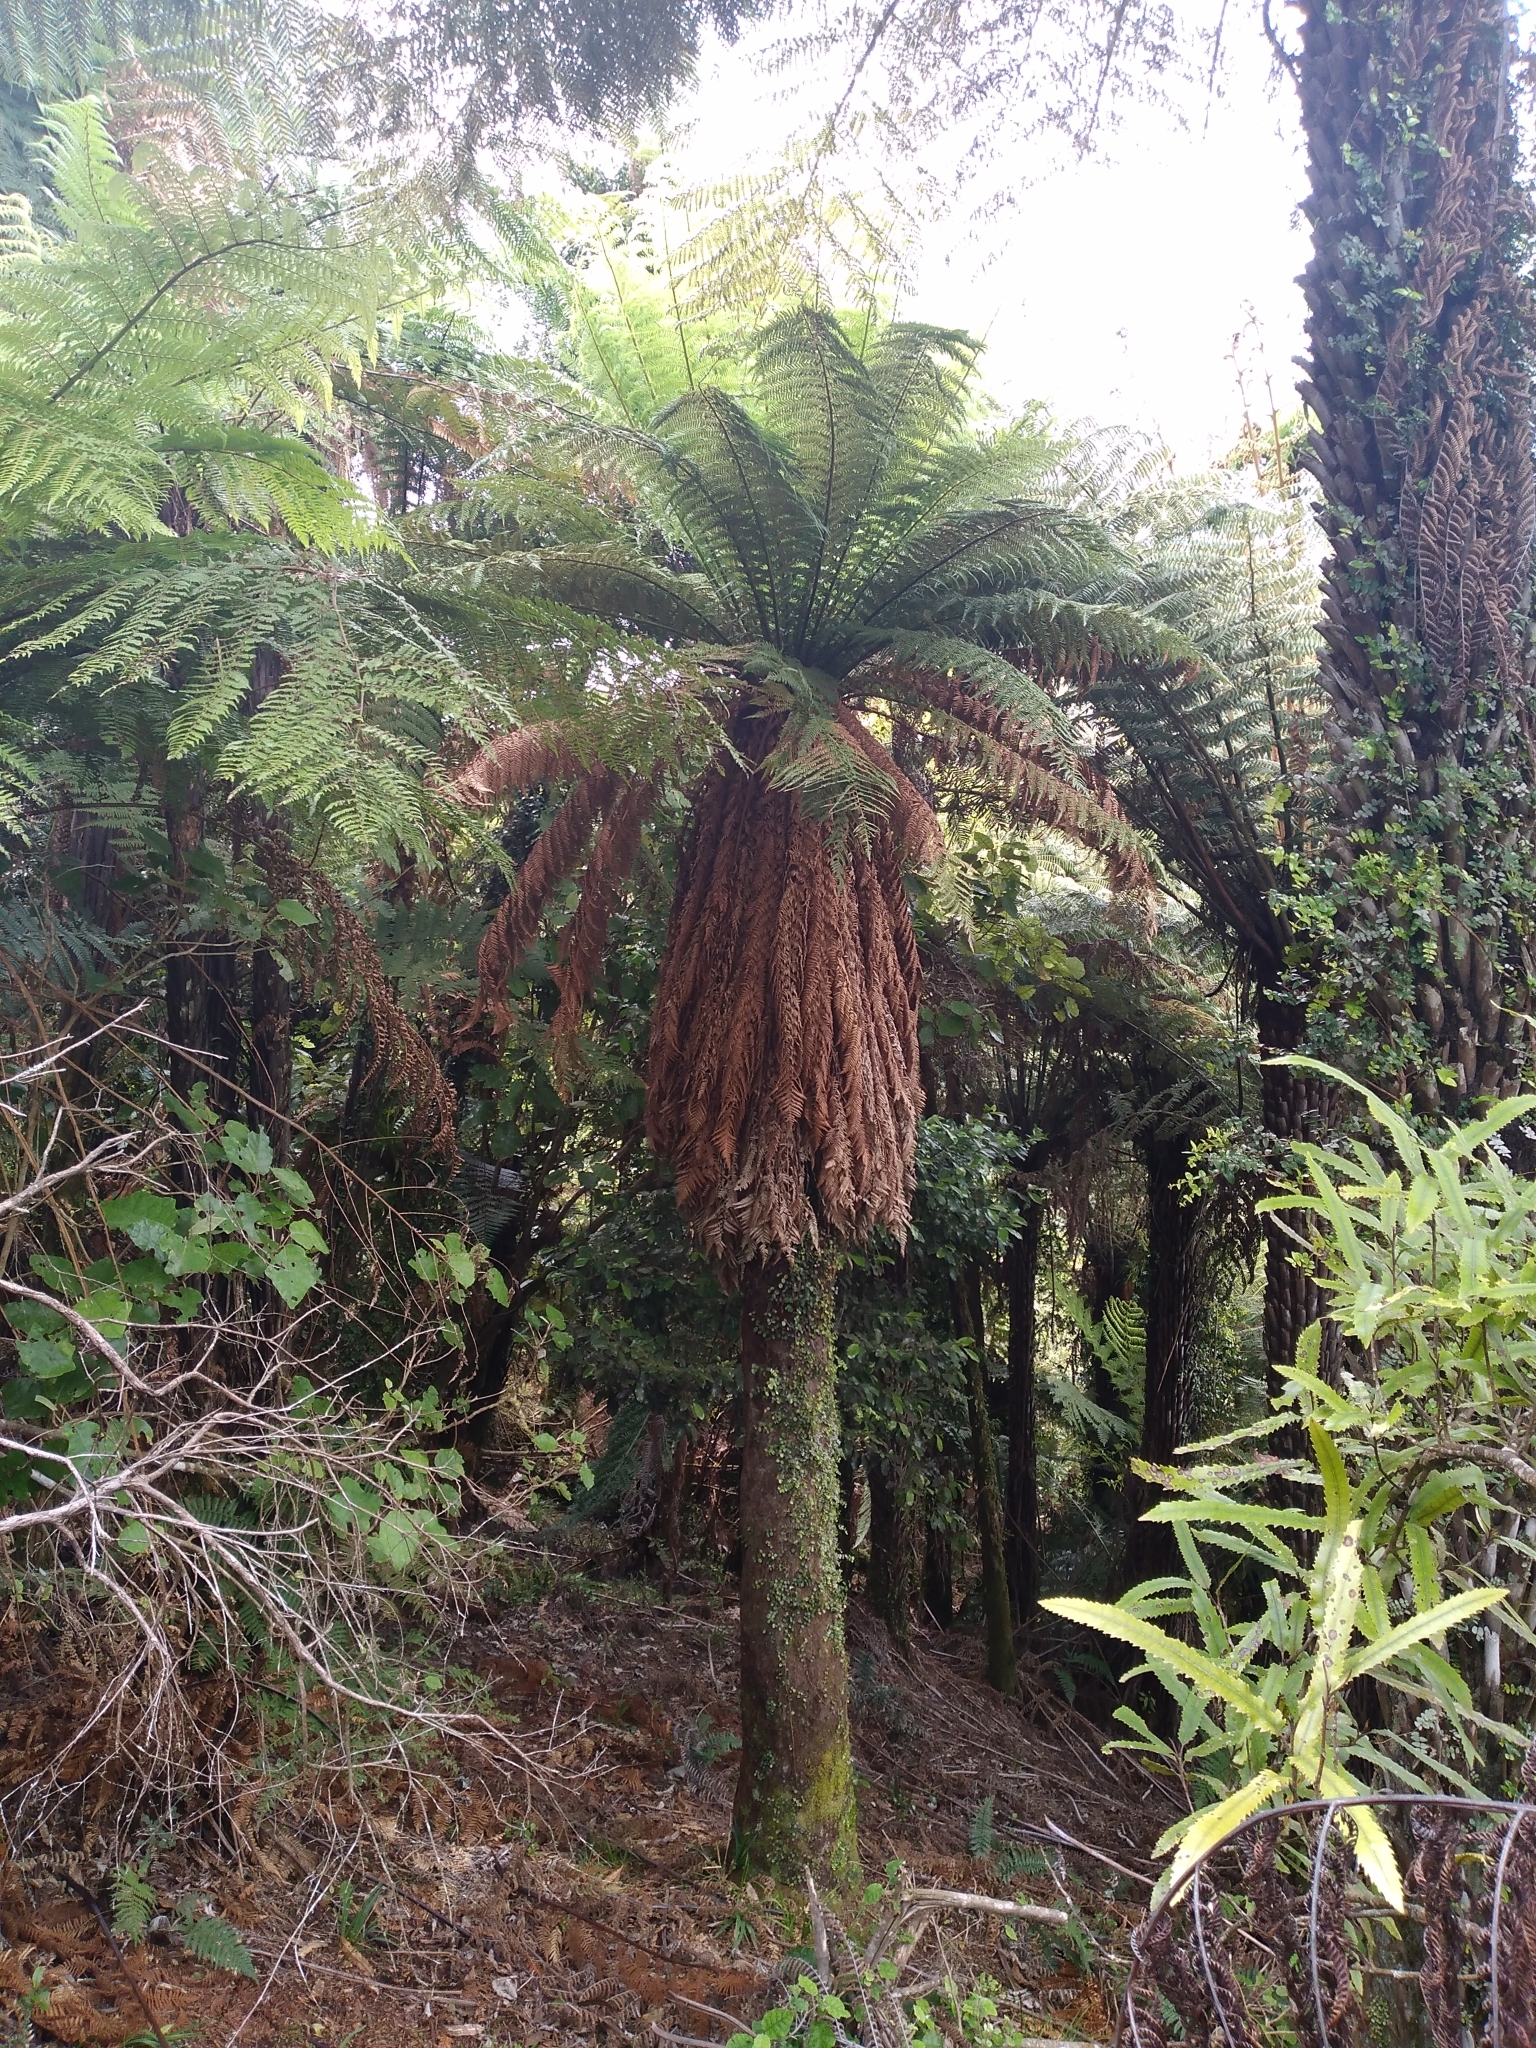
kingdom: Plantae
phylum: Tracheophyta
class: Polypodiopsida
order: Cyatheales
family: Dicksoniaceae
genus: Dicksonia
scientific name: Dicksonia fibrosa
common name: Golden tree fern
